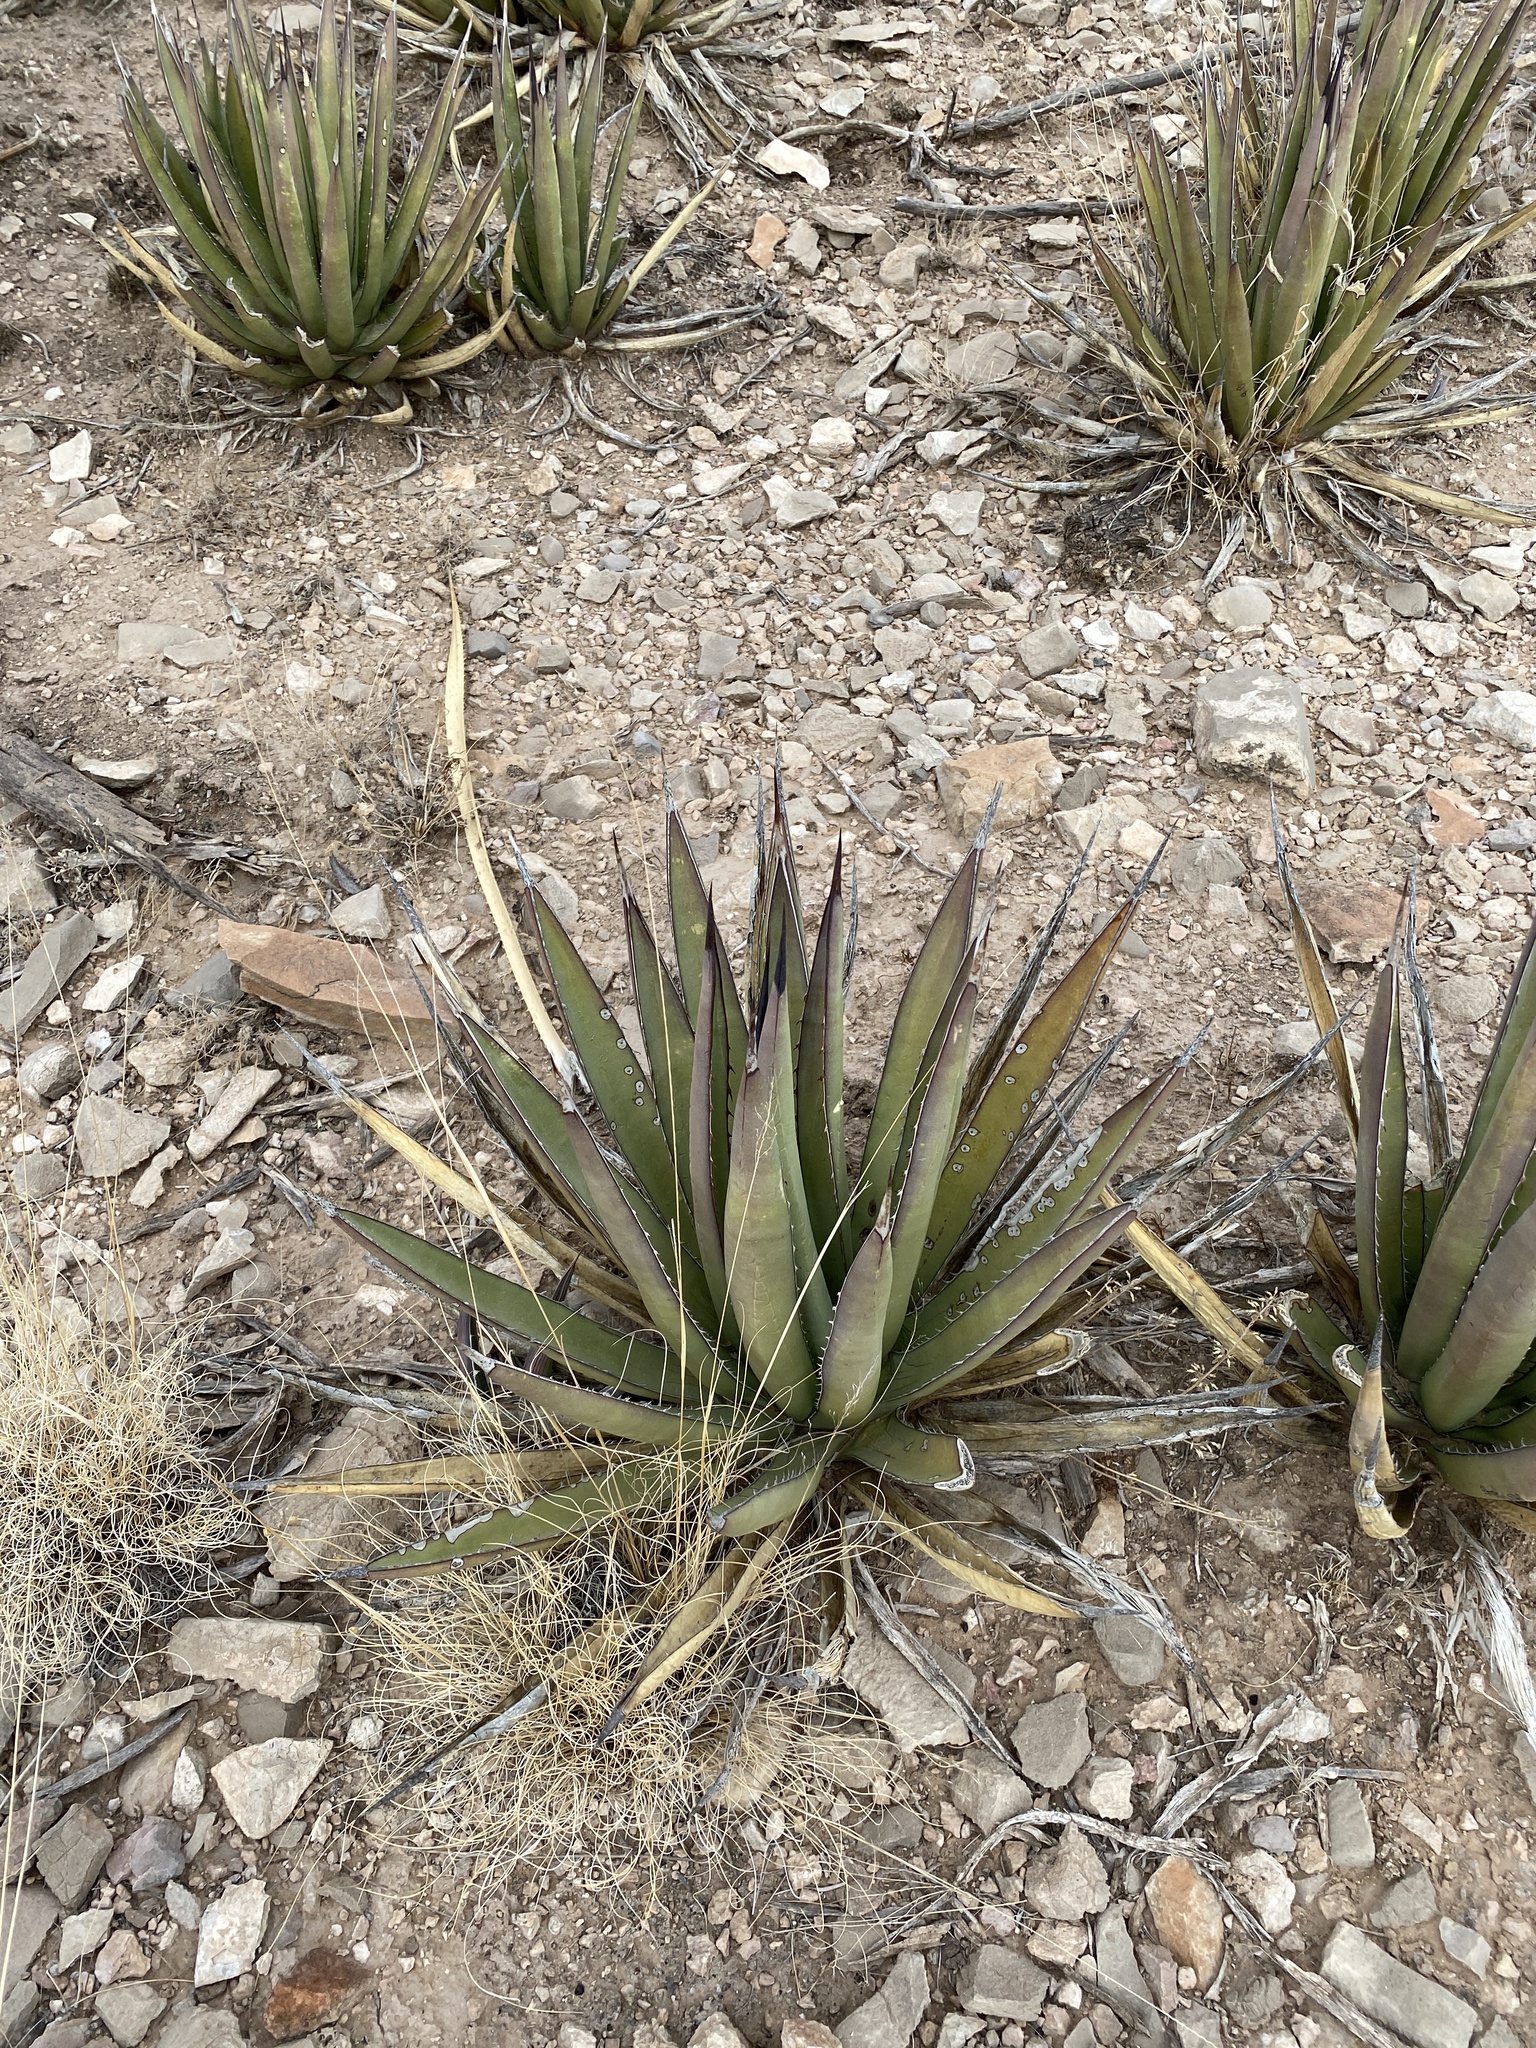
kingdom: Plantae
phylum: Tracheophyta
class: Liliopsida
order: Asparagales
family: Asparagaceae
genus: Agave
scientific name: Agave lechuguilla
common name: Lecheguilla agave
